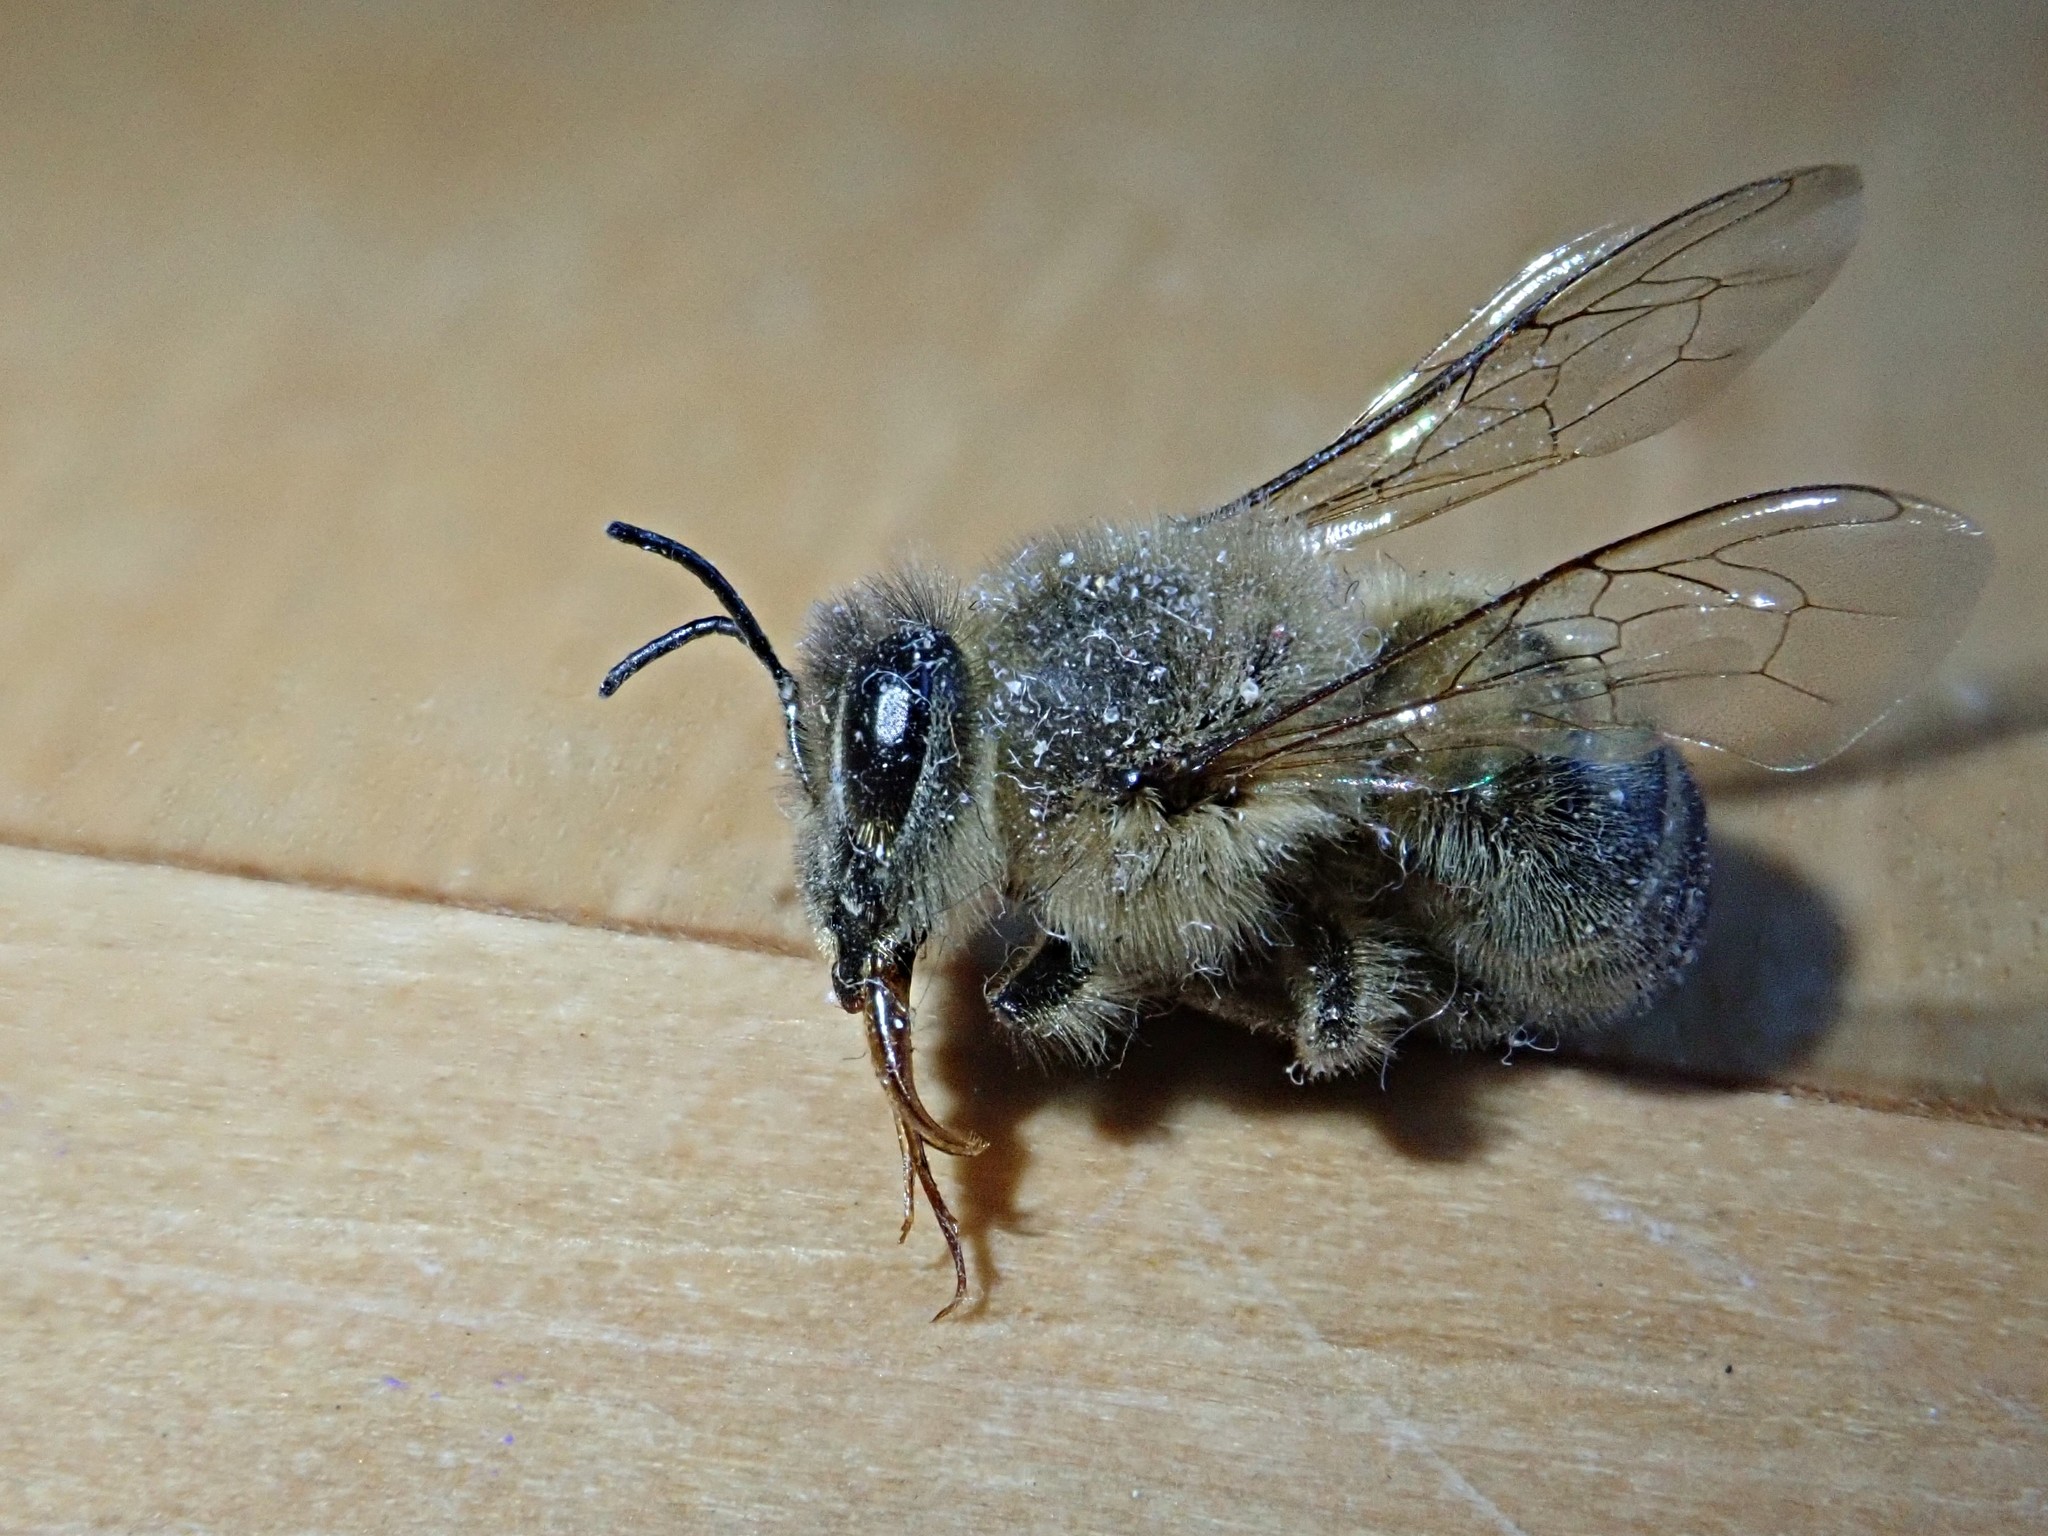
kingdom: Animalia
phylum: Arthropoda
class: Insecta
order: Hymenoptera
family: Apidae
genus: Apis
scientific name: Apis mellifera
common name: Honey bee
